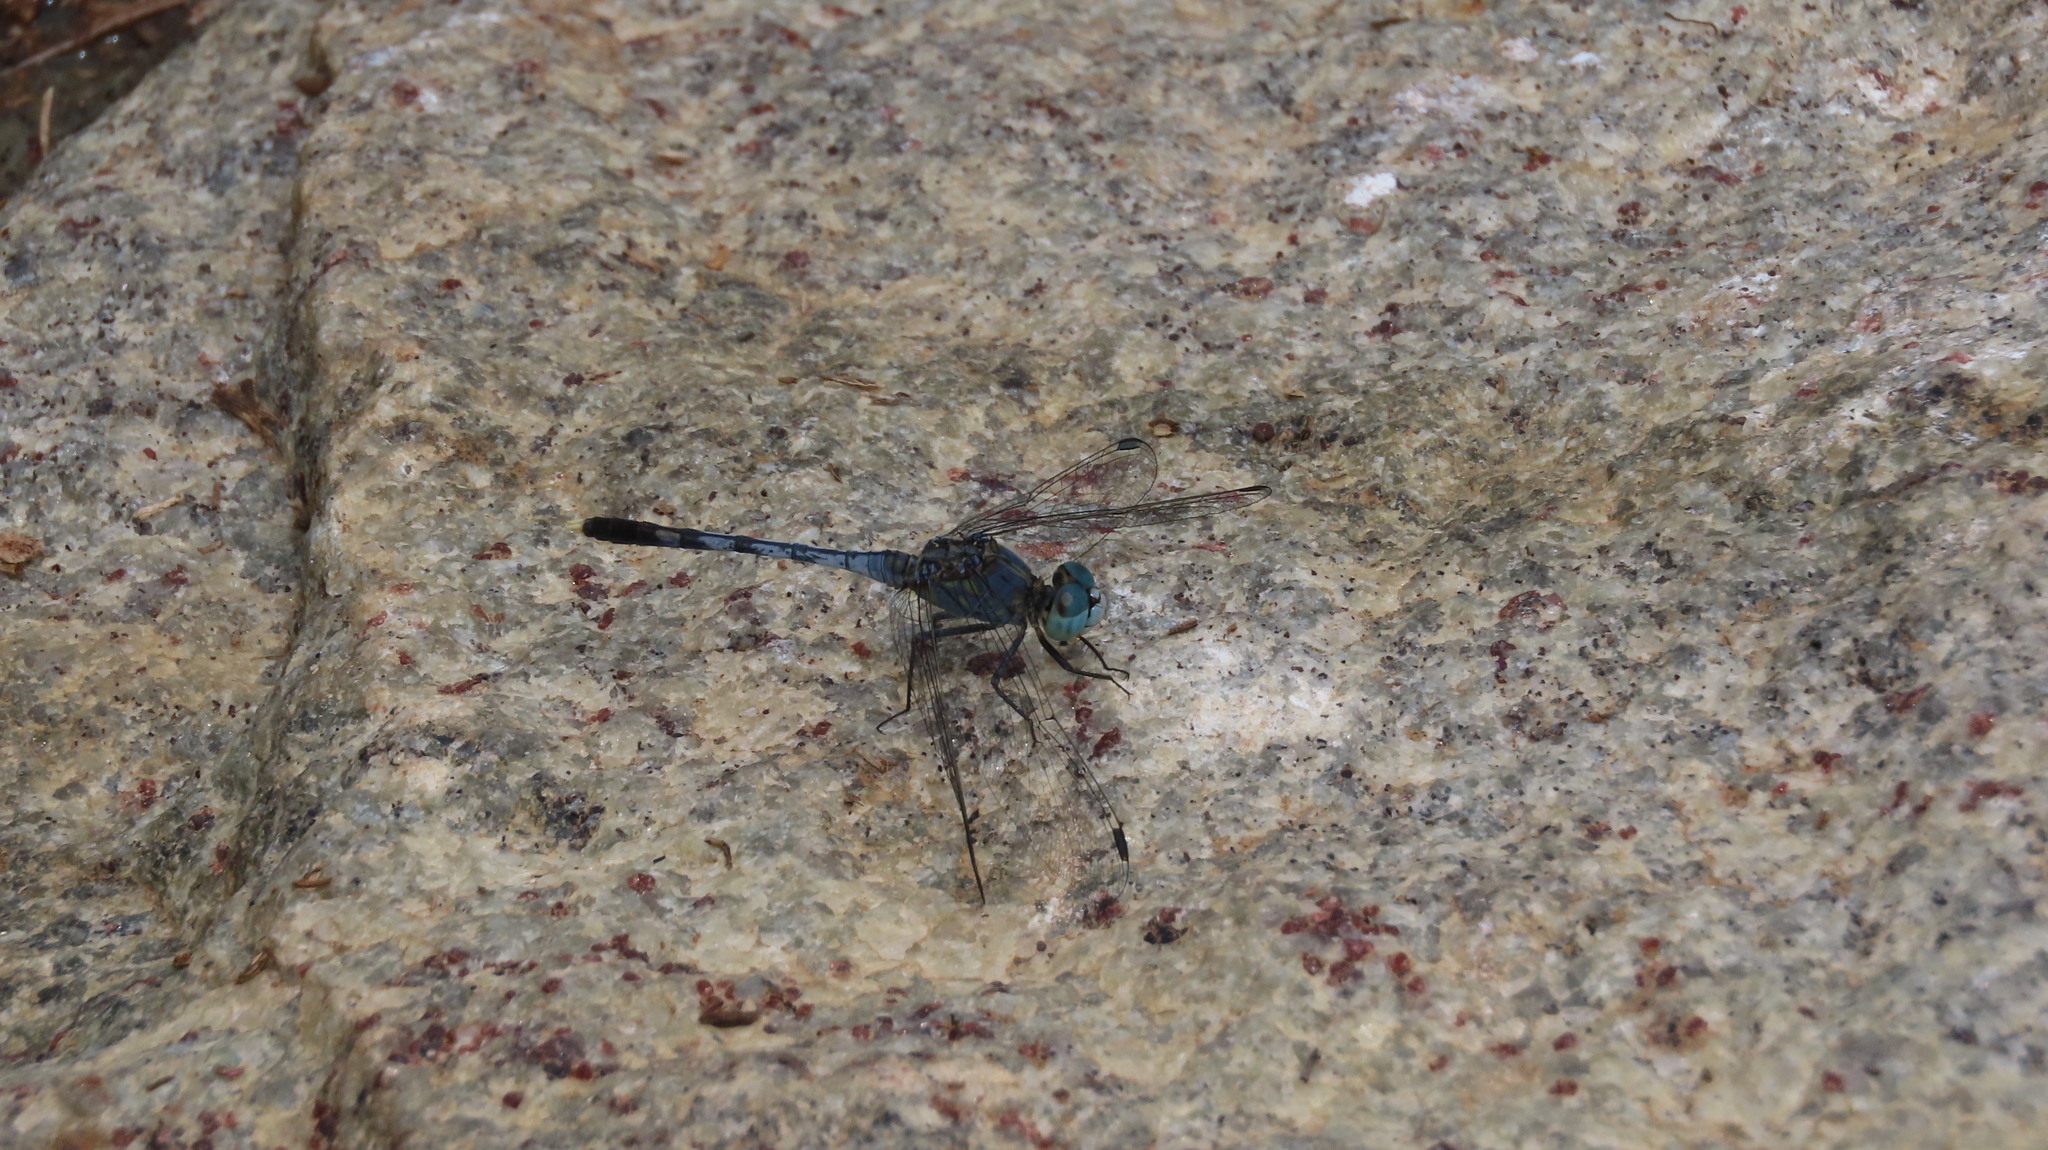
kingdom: Animalia
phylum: Arthropoda
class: Insecta
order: Odonata
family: Libellulidae
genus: Diplacodes
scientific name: Diplacodes trivialis
